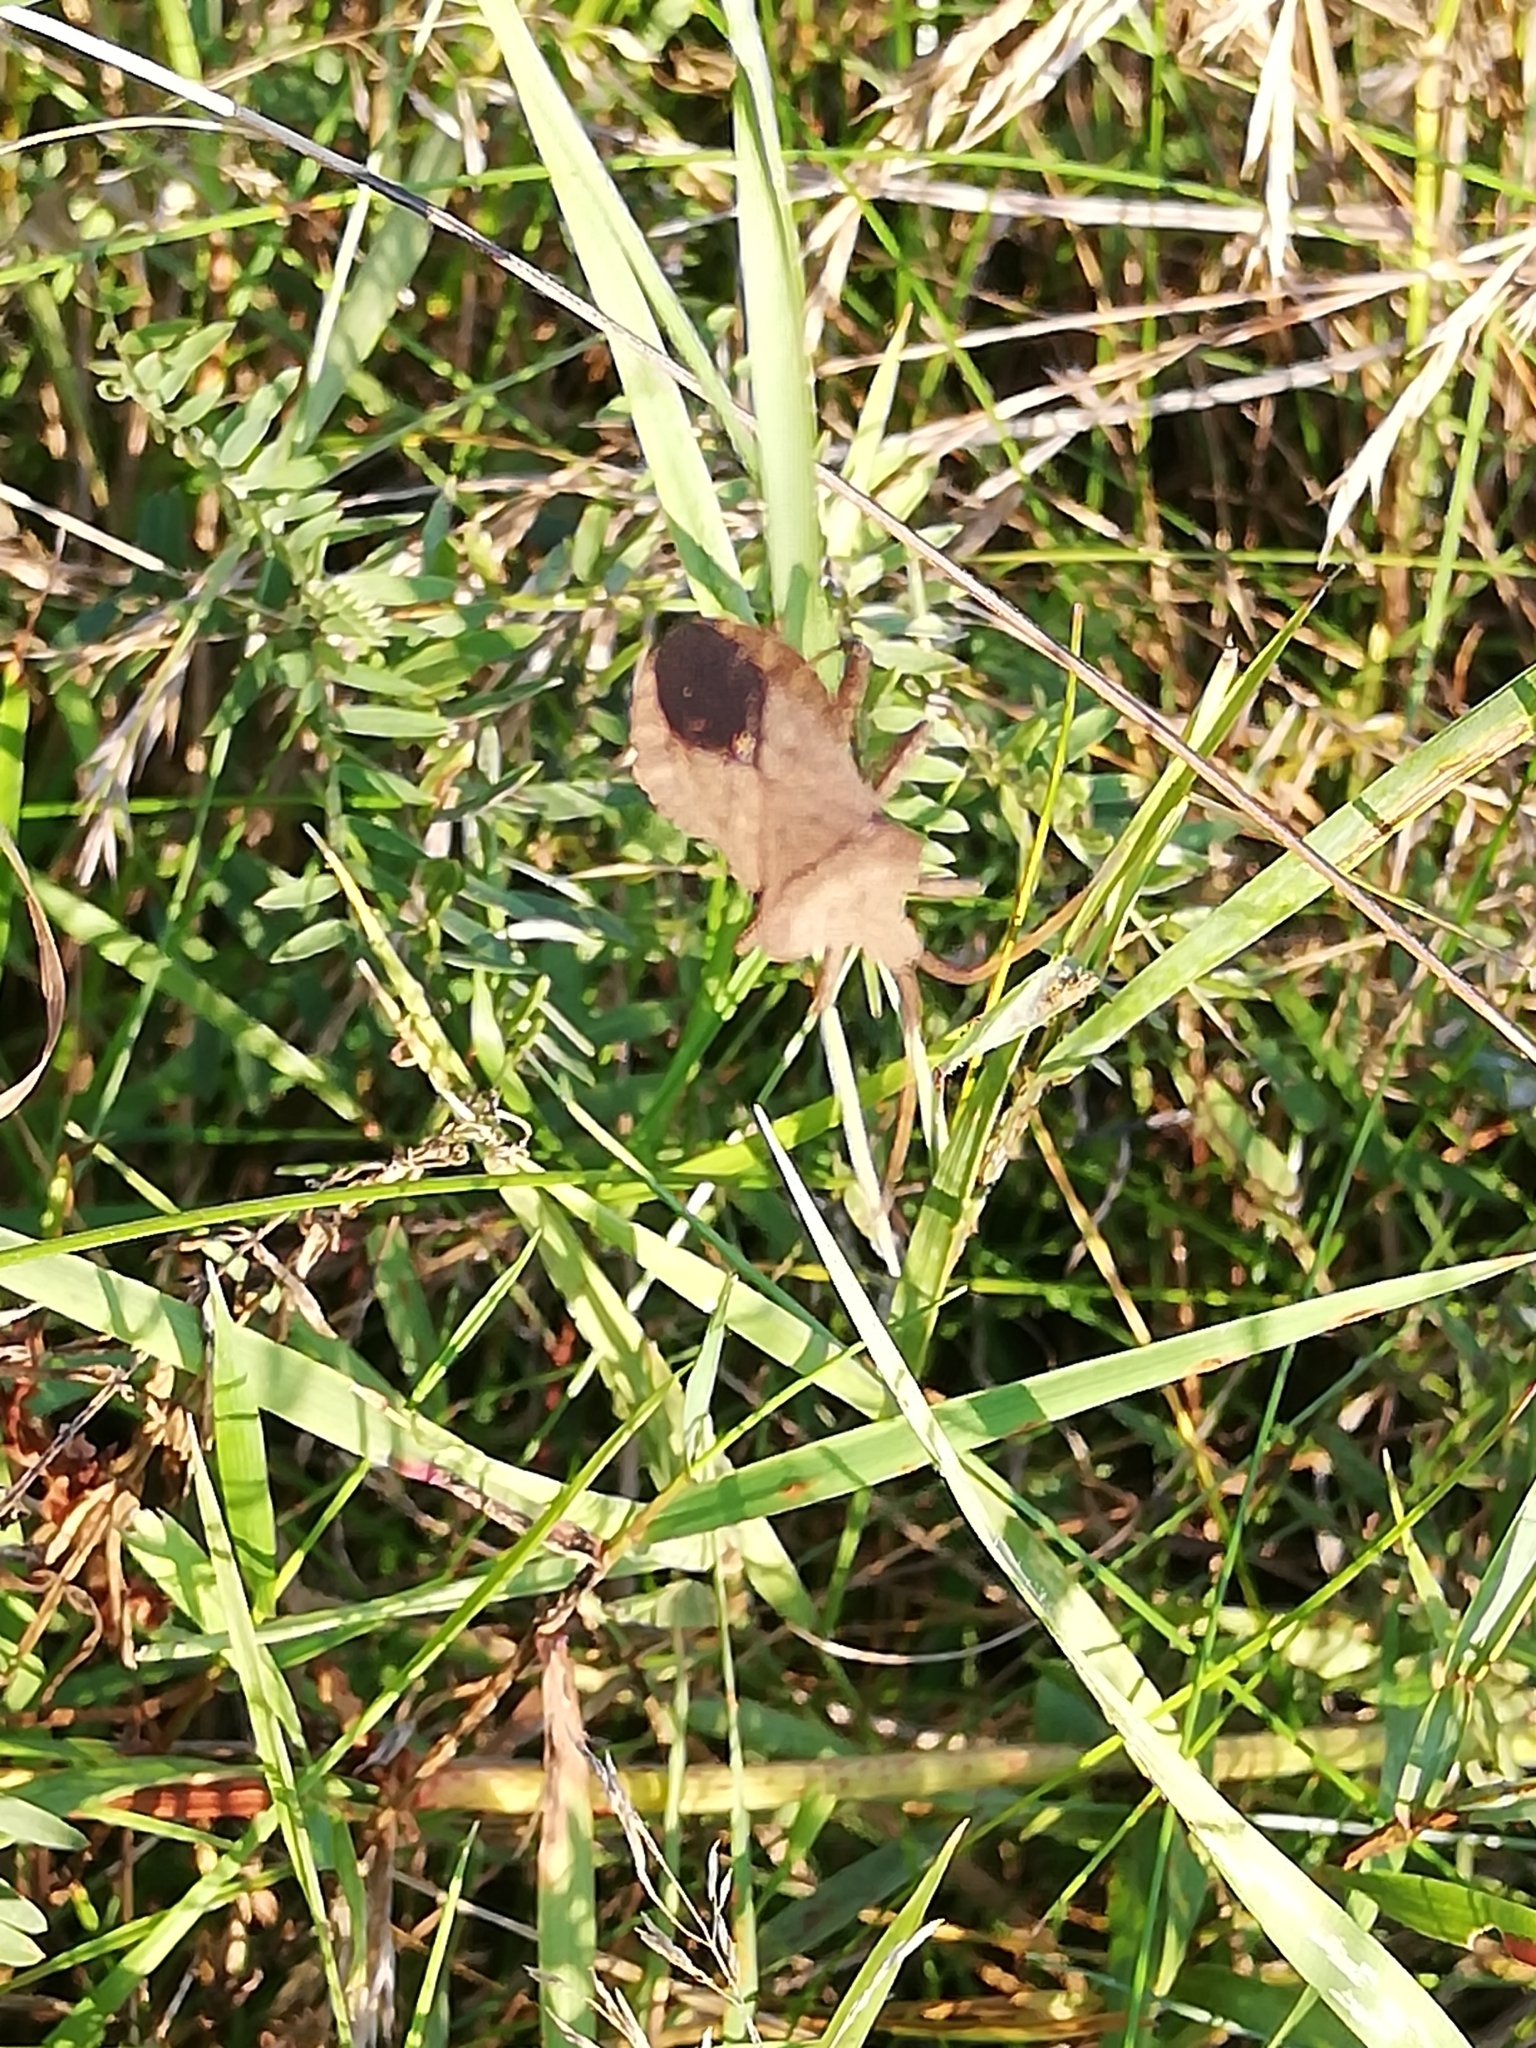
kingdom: Animalia
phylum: Arthropoda
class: Insecta
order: Hemiptera
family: Coreidae
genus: Coreus
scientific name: Coreus marginatus
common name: Dock bug
